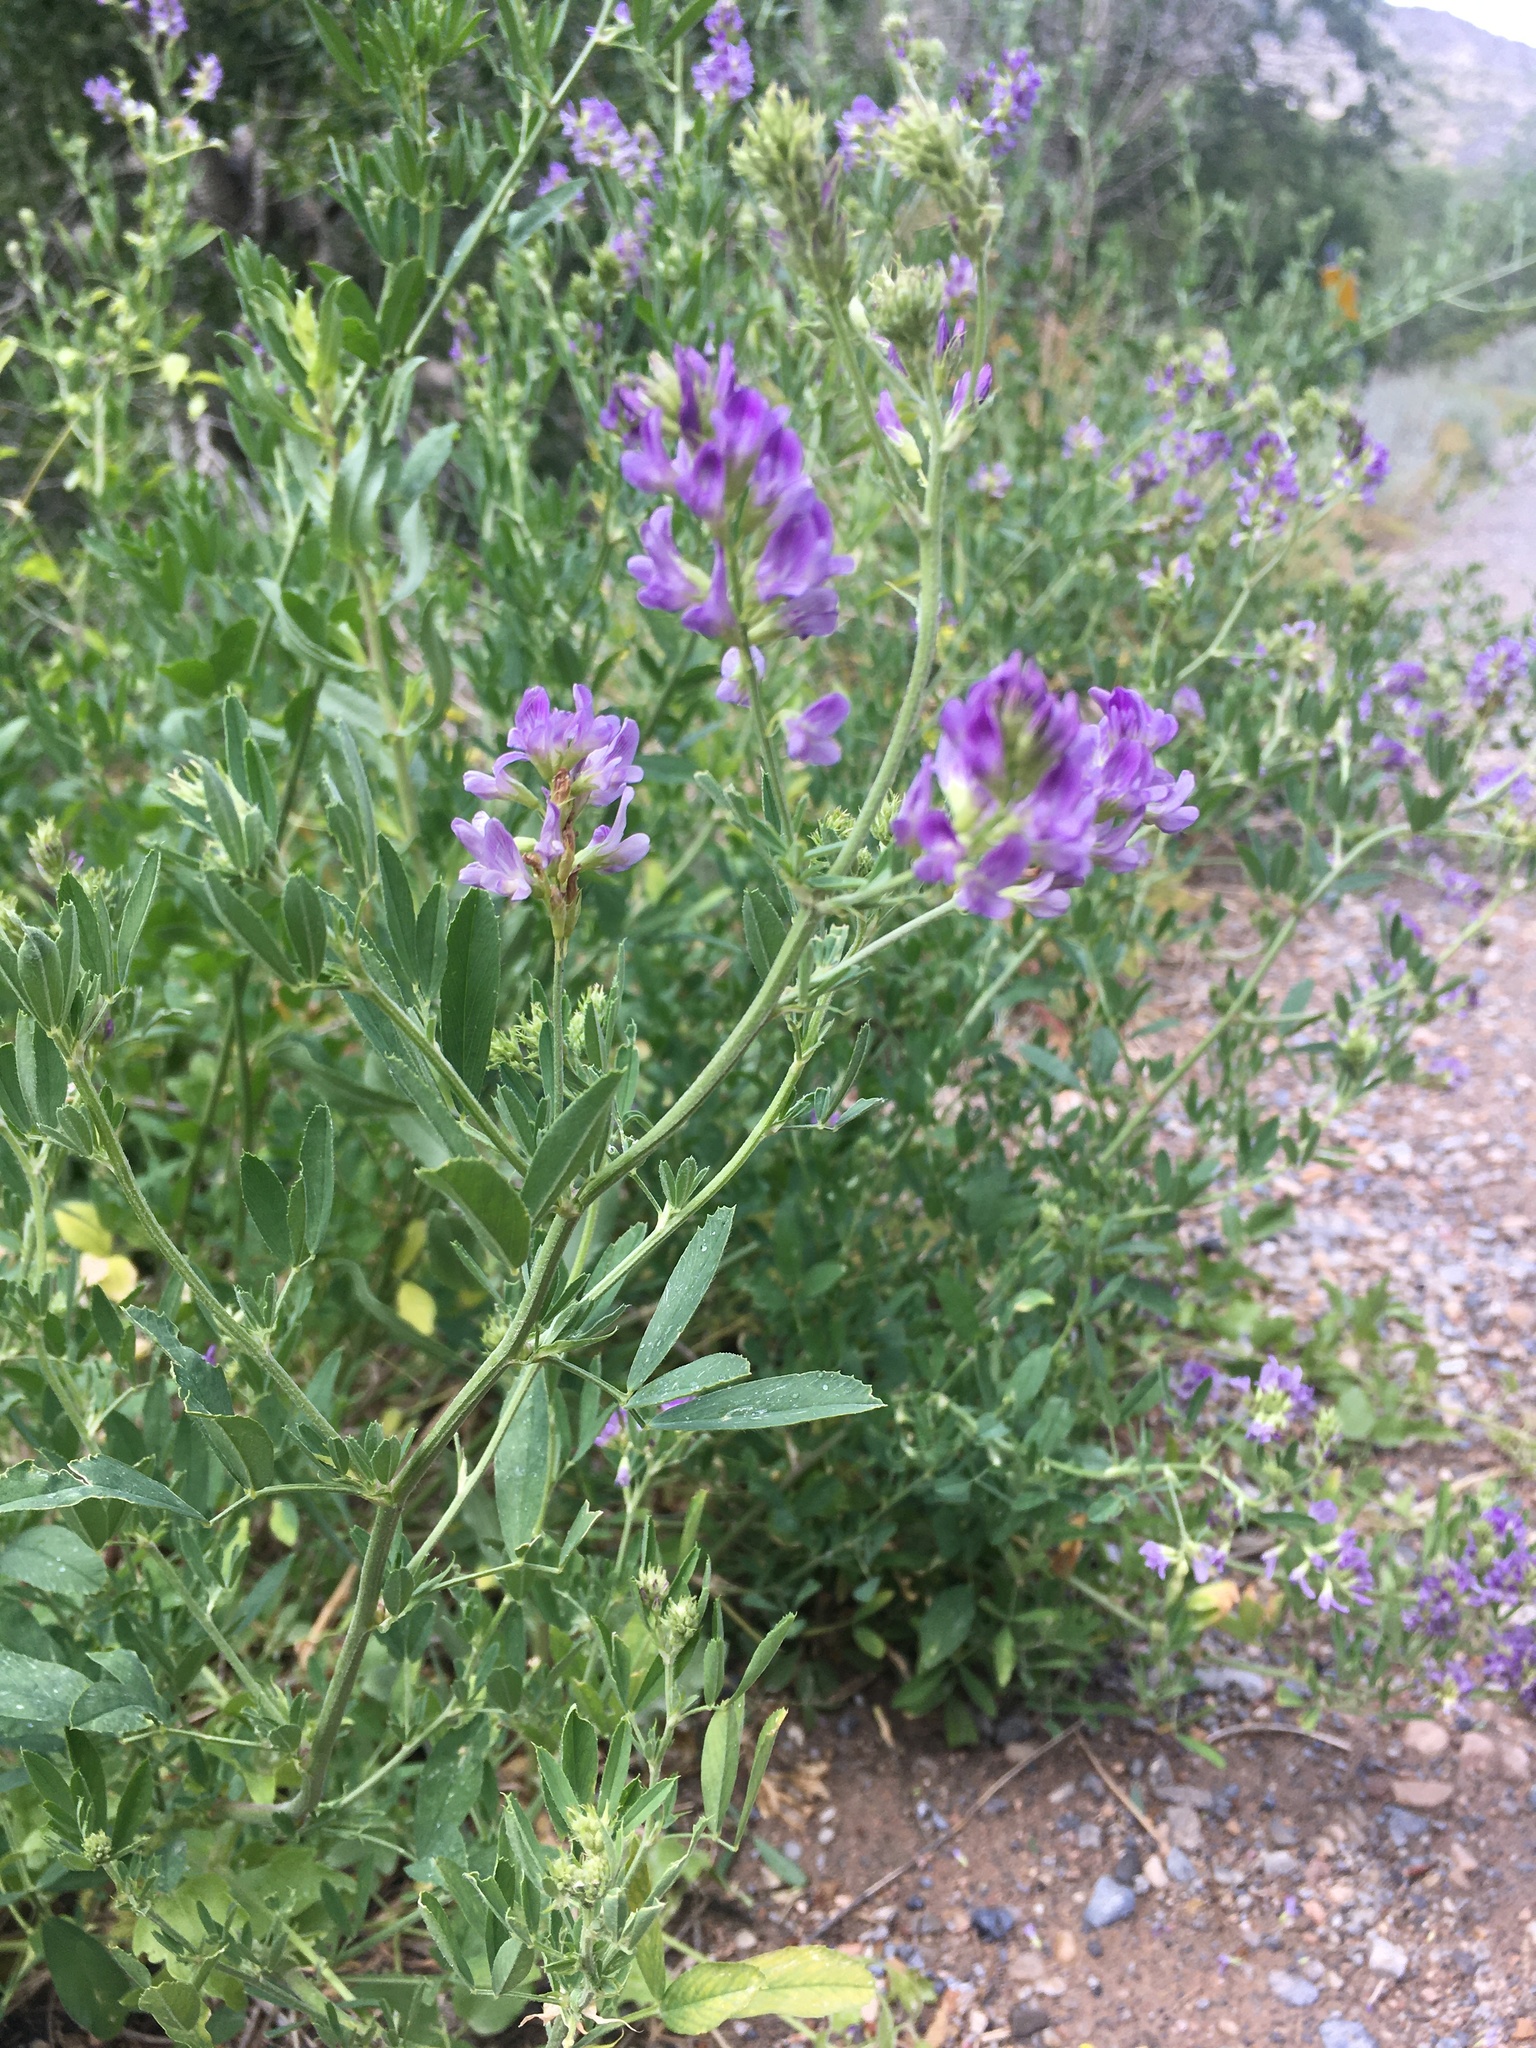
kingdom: Plantae
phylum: Tracheophyta
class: Magnoliopsida
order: Fabales
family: Fabaceae
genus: Medicago
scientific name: Medicago sativa
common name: Alfalfa
